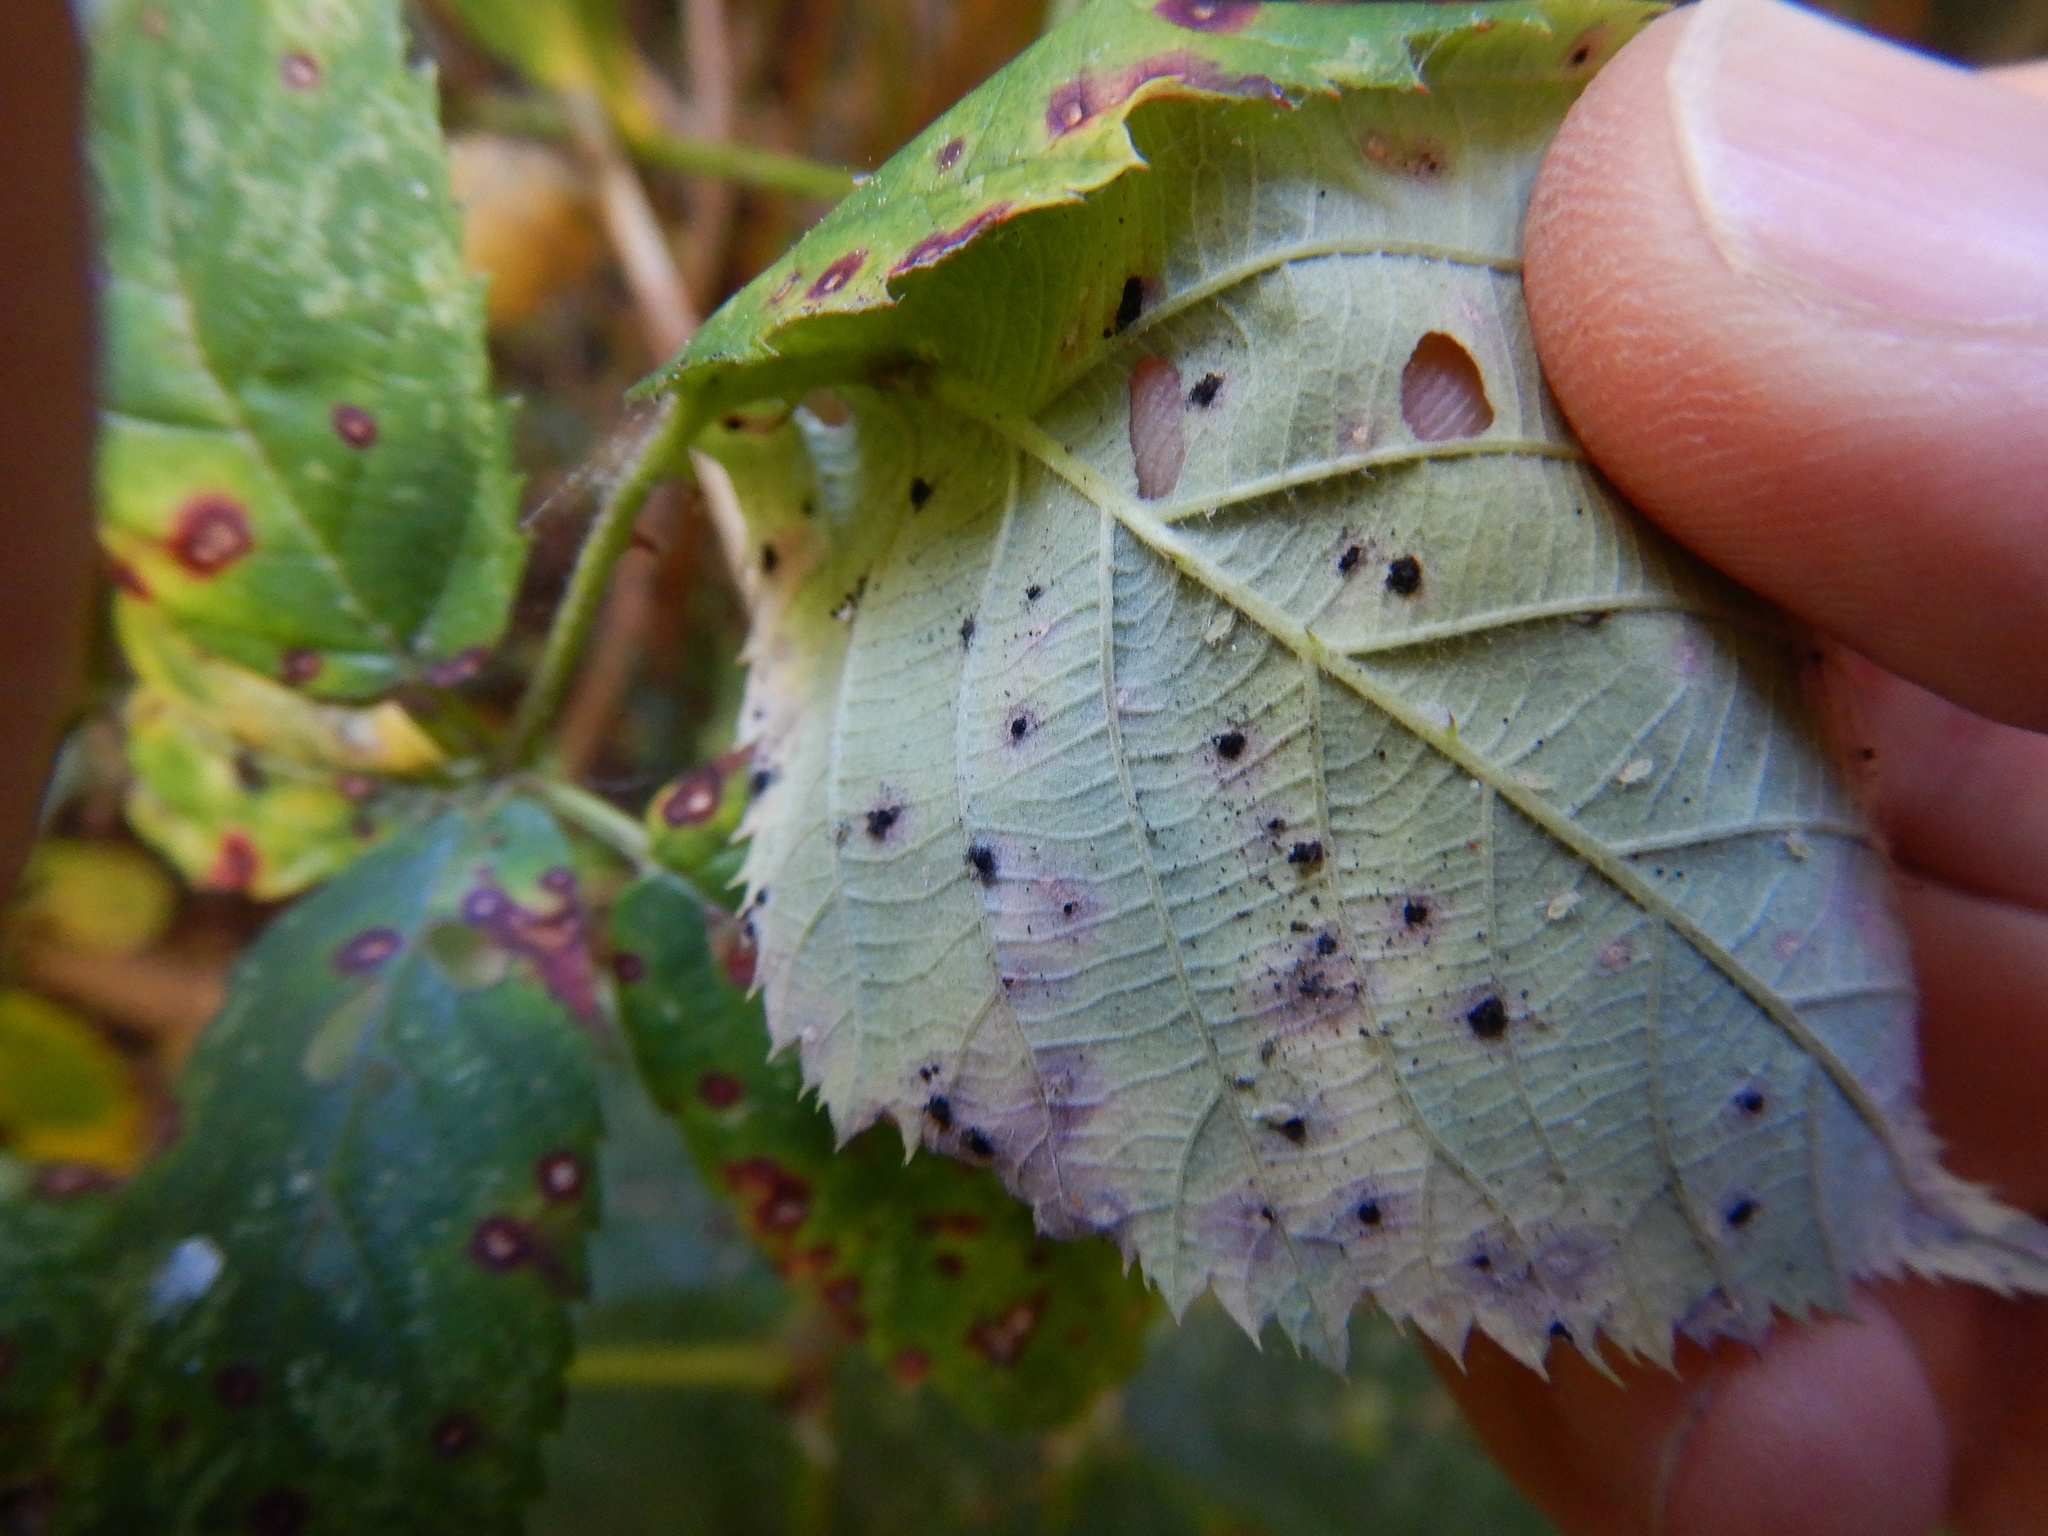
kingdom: Fungi
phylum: Basidiomycota
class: Pucciniomycetes
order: Pucciniales
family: Phragmidiaceae
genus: Phragmidium
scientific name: Phragmidium violaceum
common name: Violet bramble rust
